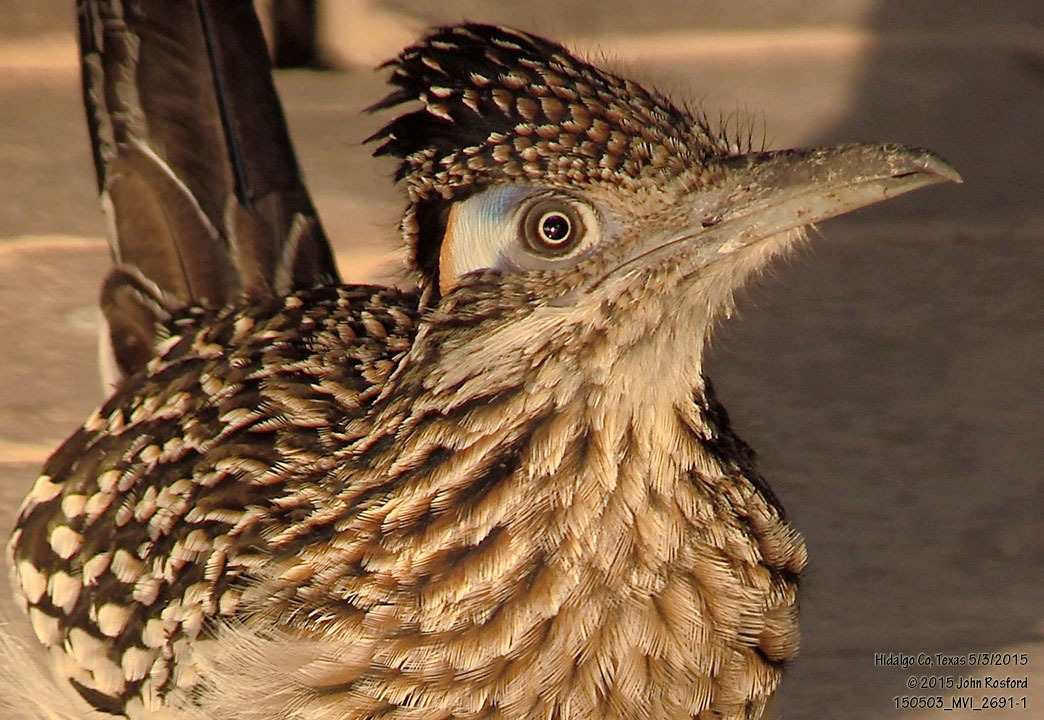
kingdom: Animalia
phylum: Chordata
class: Aves
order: Cuculiformes
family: Cuculidae
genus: Geococcyx
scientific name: Geococcyx californianus
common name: Greater roadrunner
